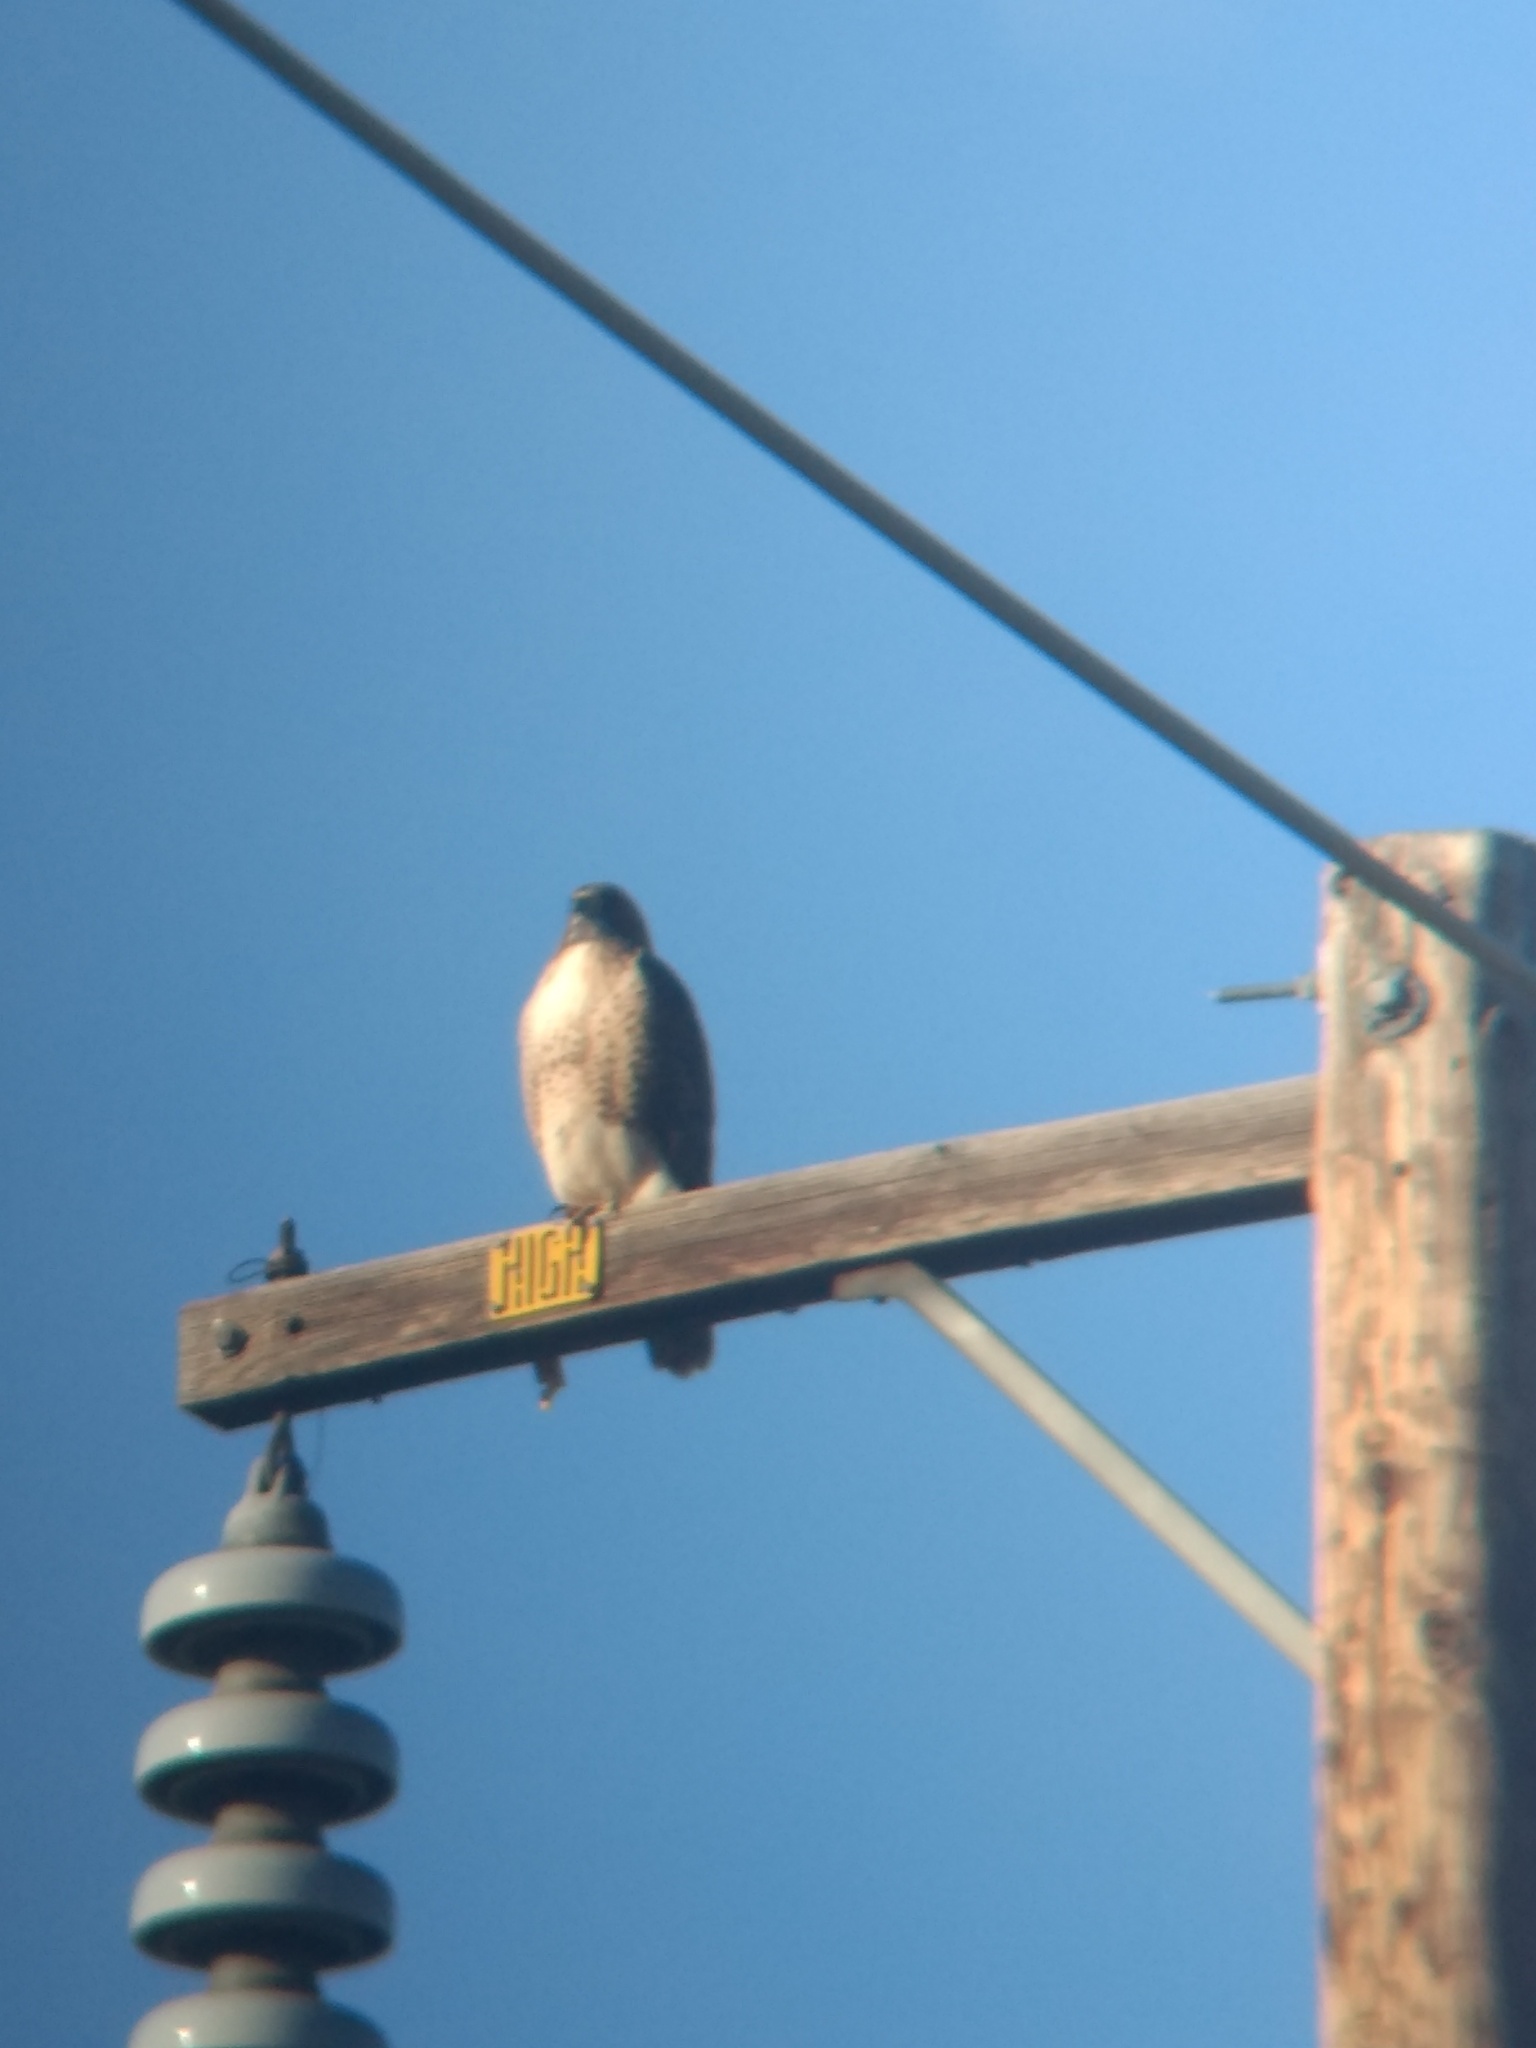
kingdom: Animalia
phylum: Chordata
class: Aves
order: Accipitriformes
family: Accipitridae
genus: Buteo
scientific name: Buteo jamaicensis
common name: Red-tailed hawk
